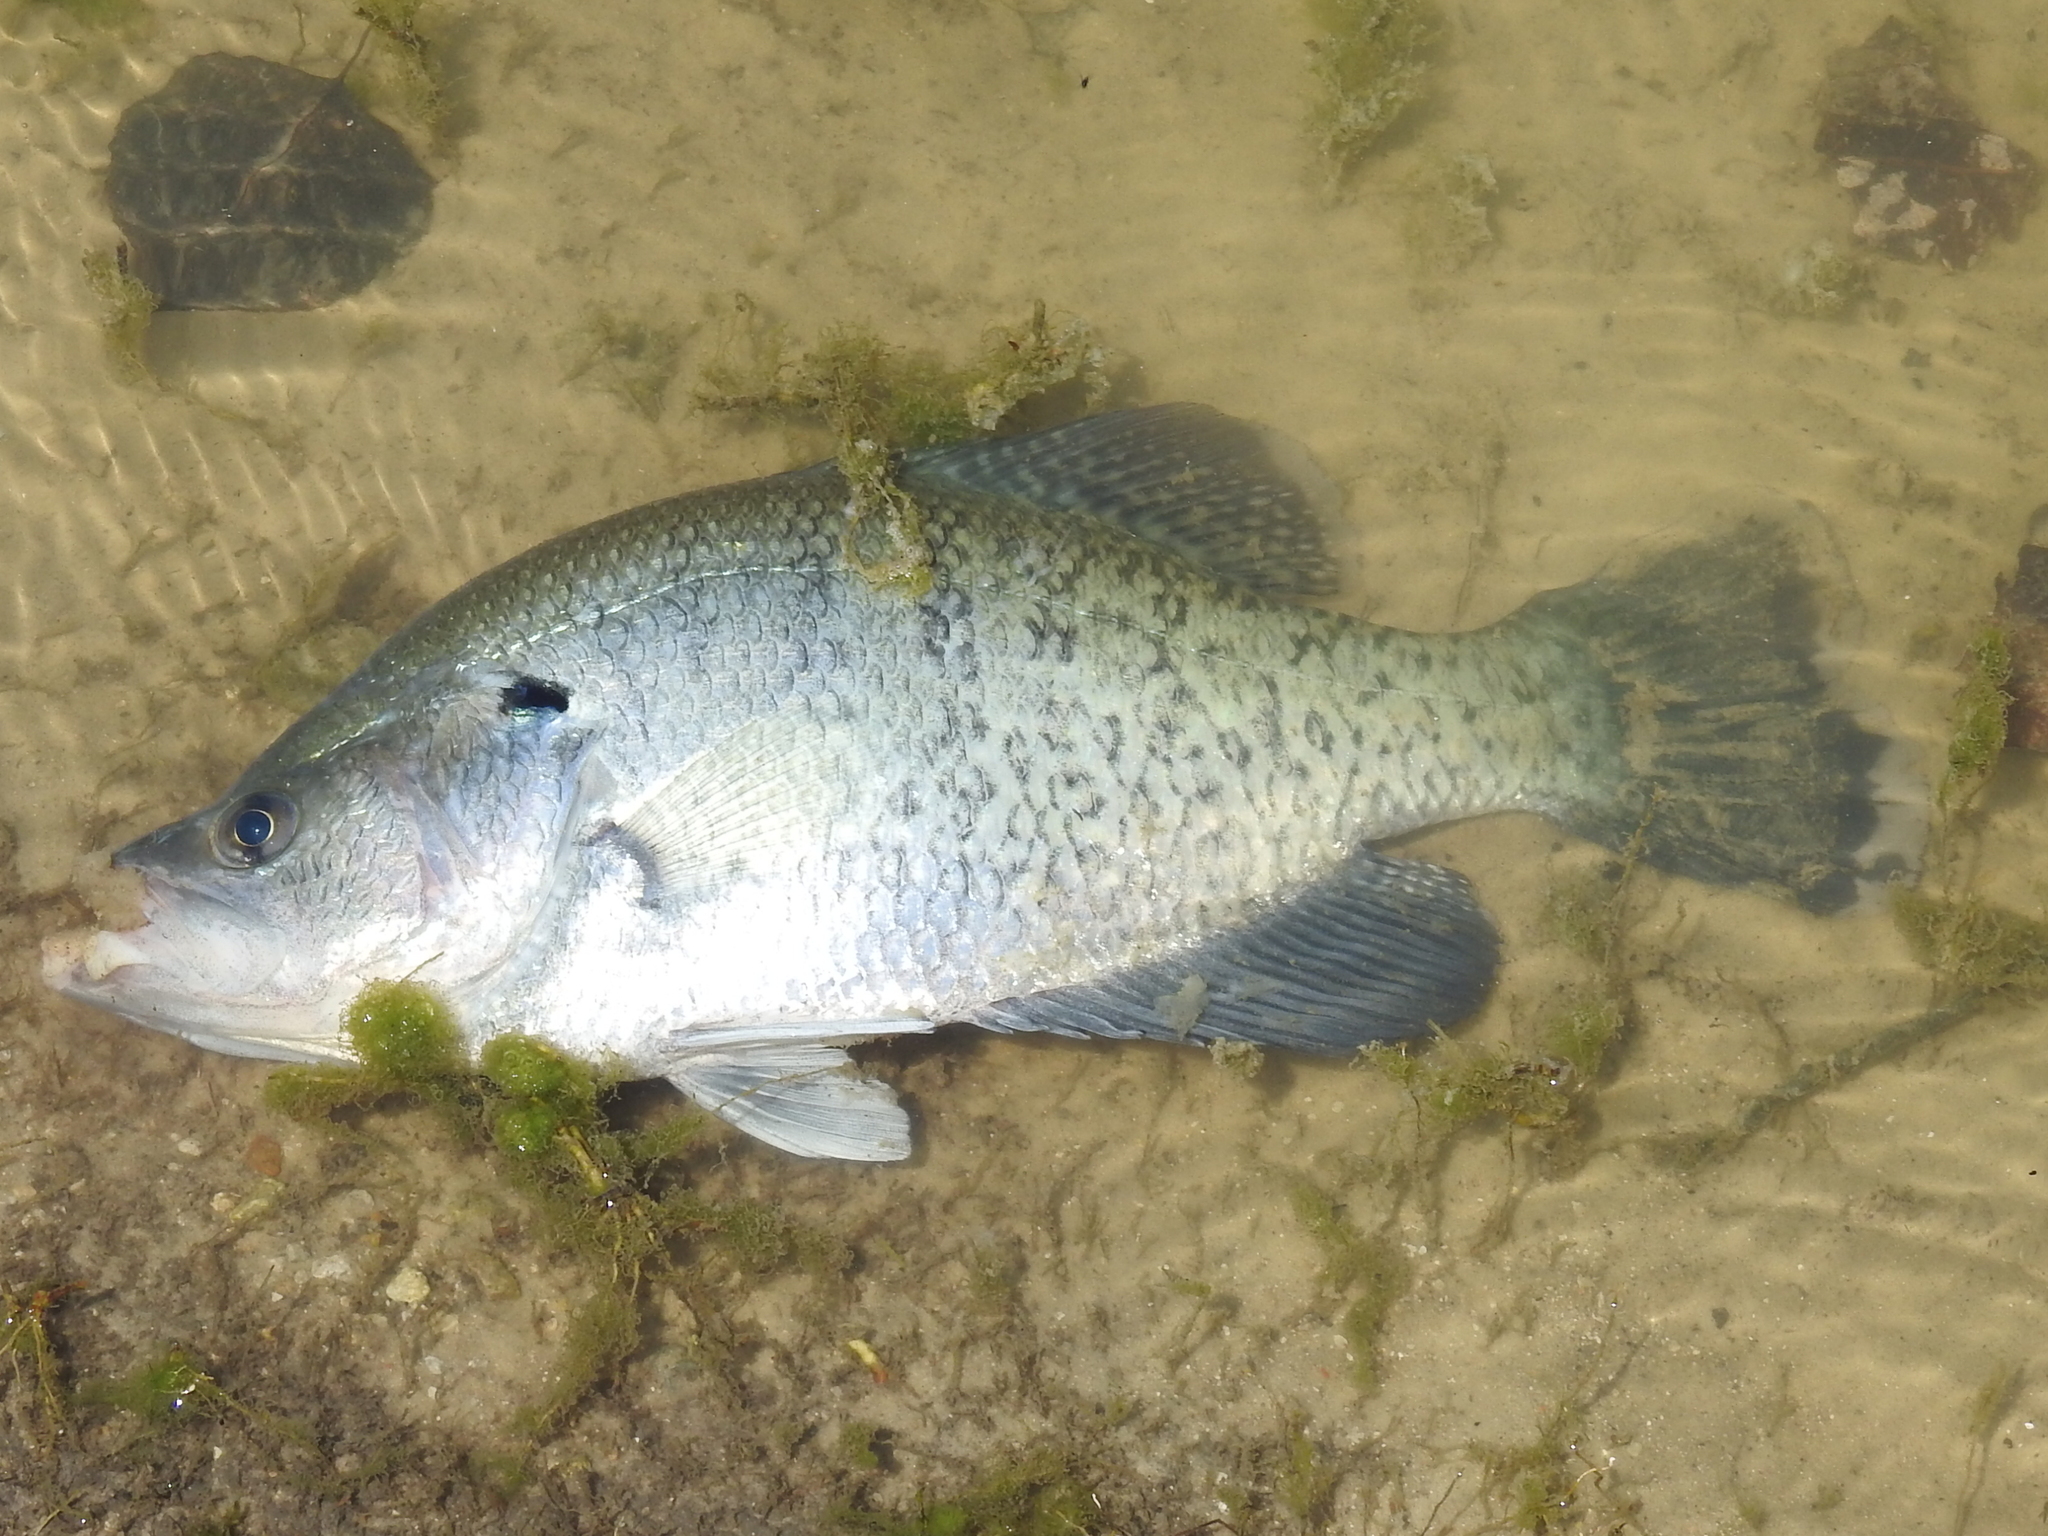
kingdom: Animalia
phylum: Chordata
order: Perciformes
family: Centrarchidae
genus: Pomoxis
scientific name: Pomoxis annularis
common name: White crappie
